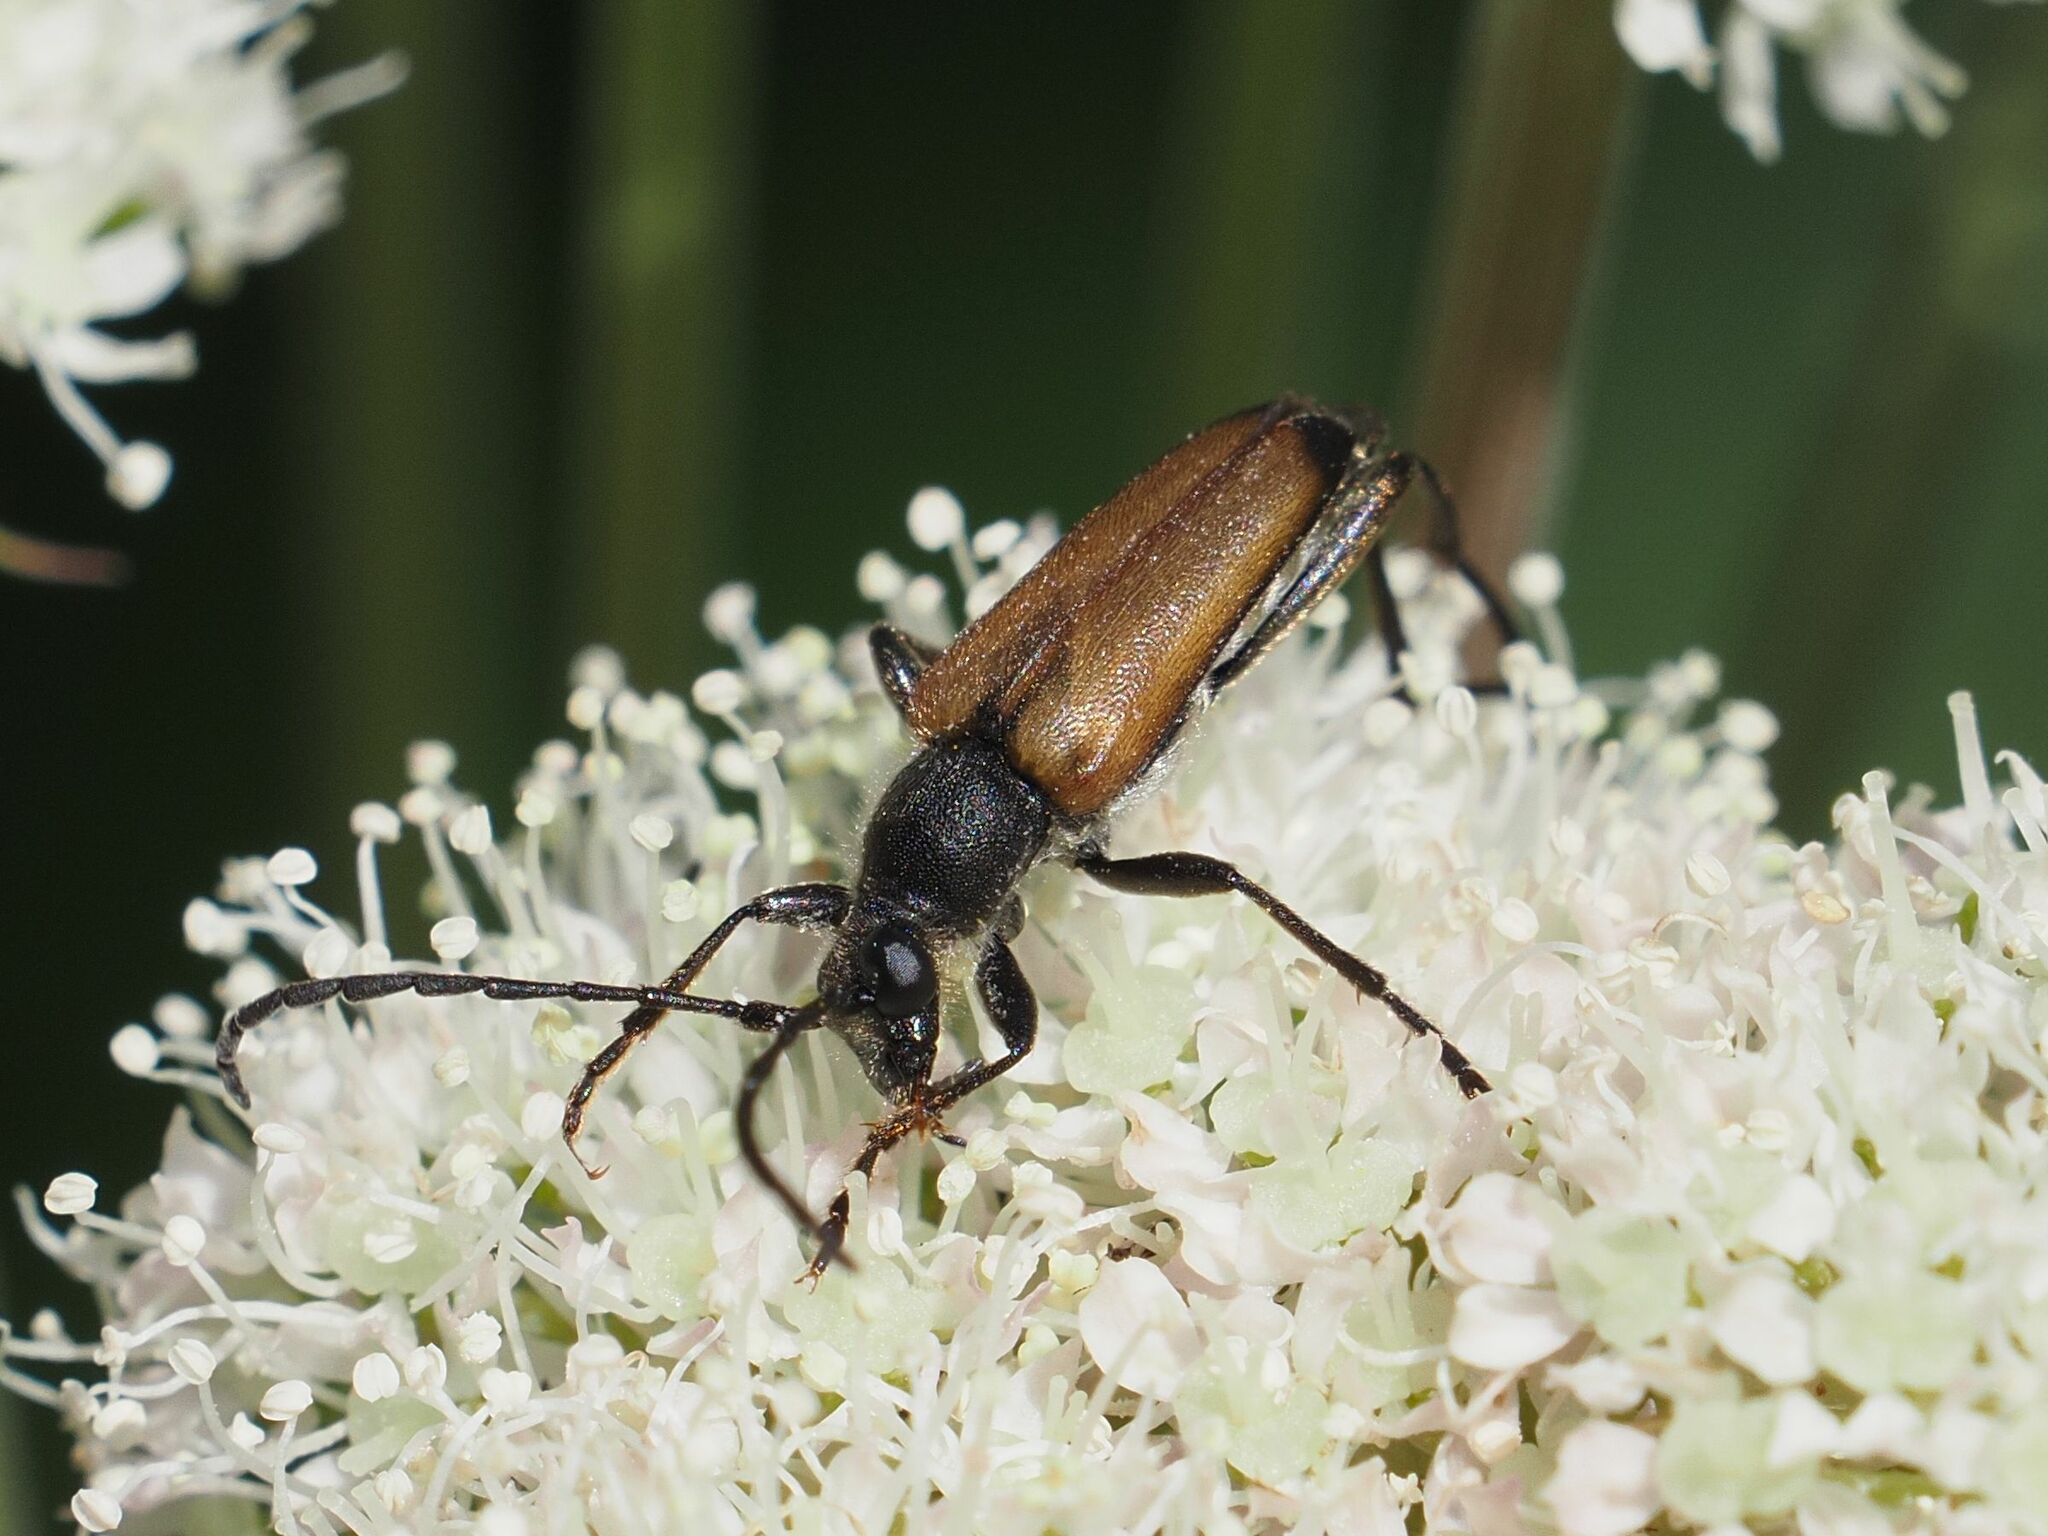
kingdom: Animalia
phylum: Arthropoda
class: Insecta
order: Coleoptera
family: Cerambycidae
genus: Anastrangalia
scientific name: Anastrangalia sanguinolenta
